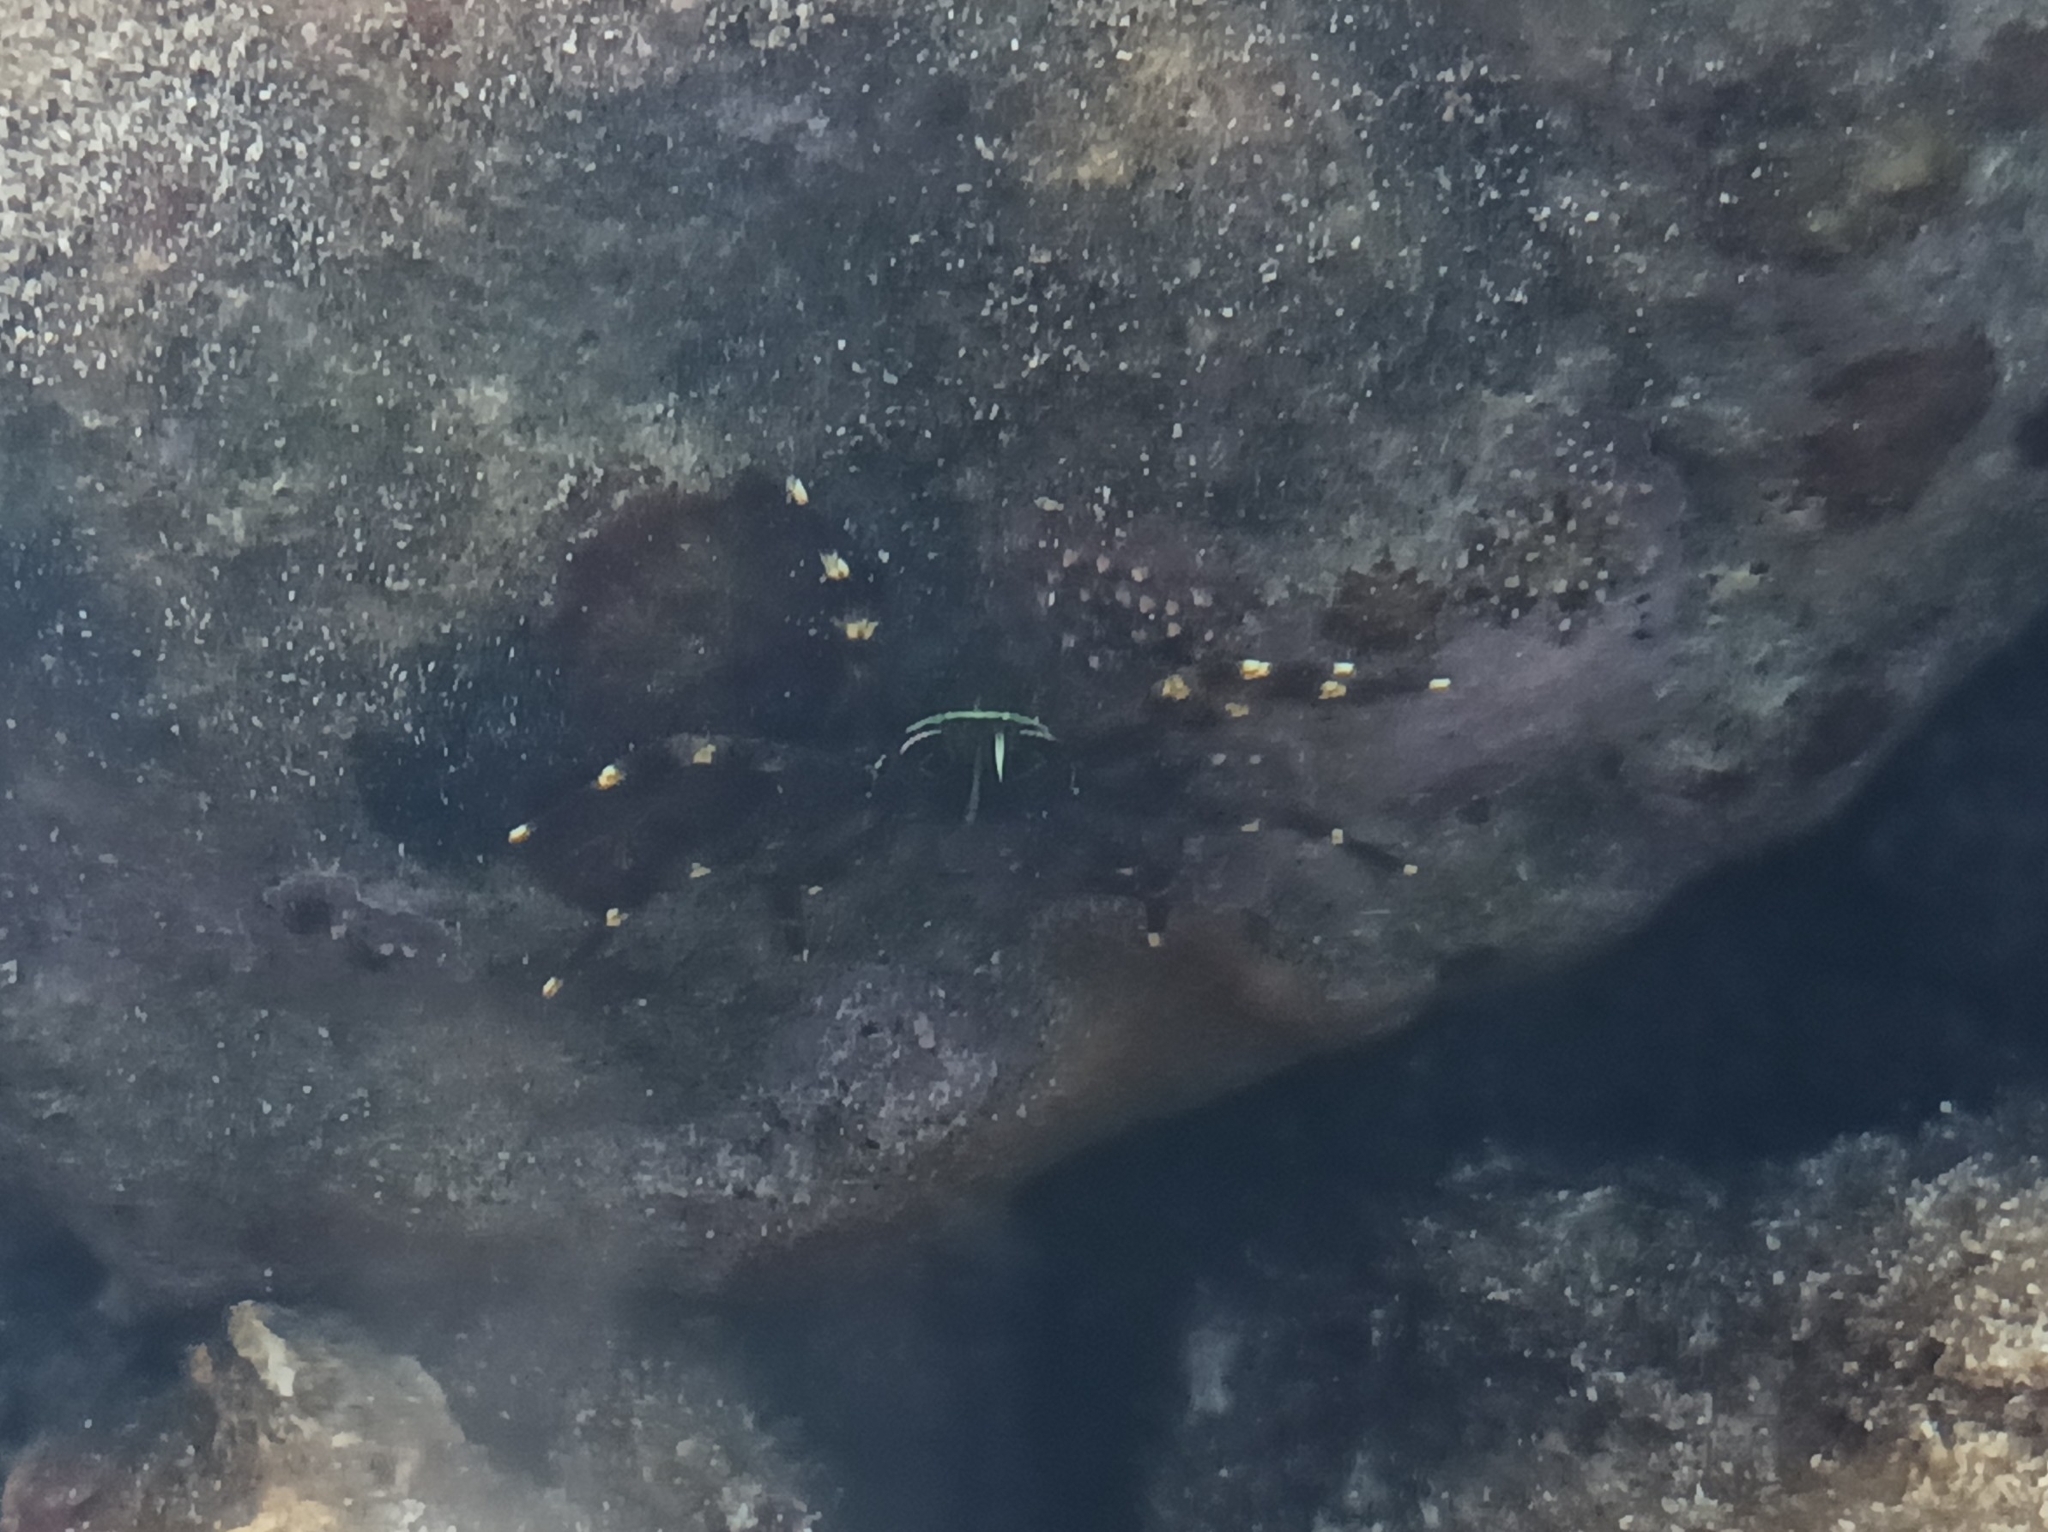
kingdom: Animalia
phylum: Arthropoda
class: Malacostraca
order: Decapoda
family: Percnidae
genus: Percnon
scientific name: Percnon planissimum
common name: Flat rock crab
